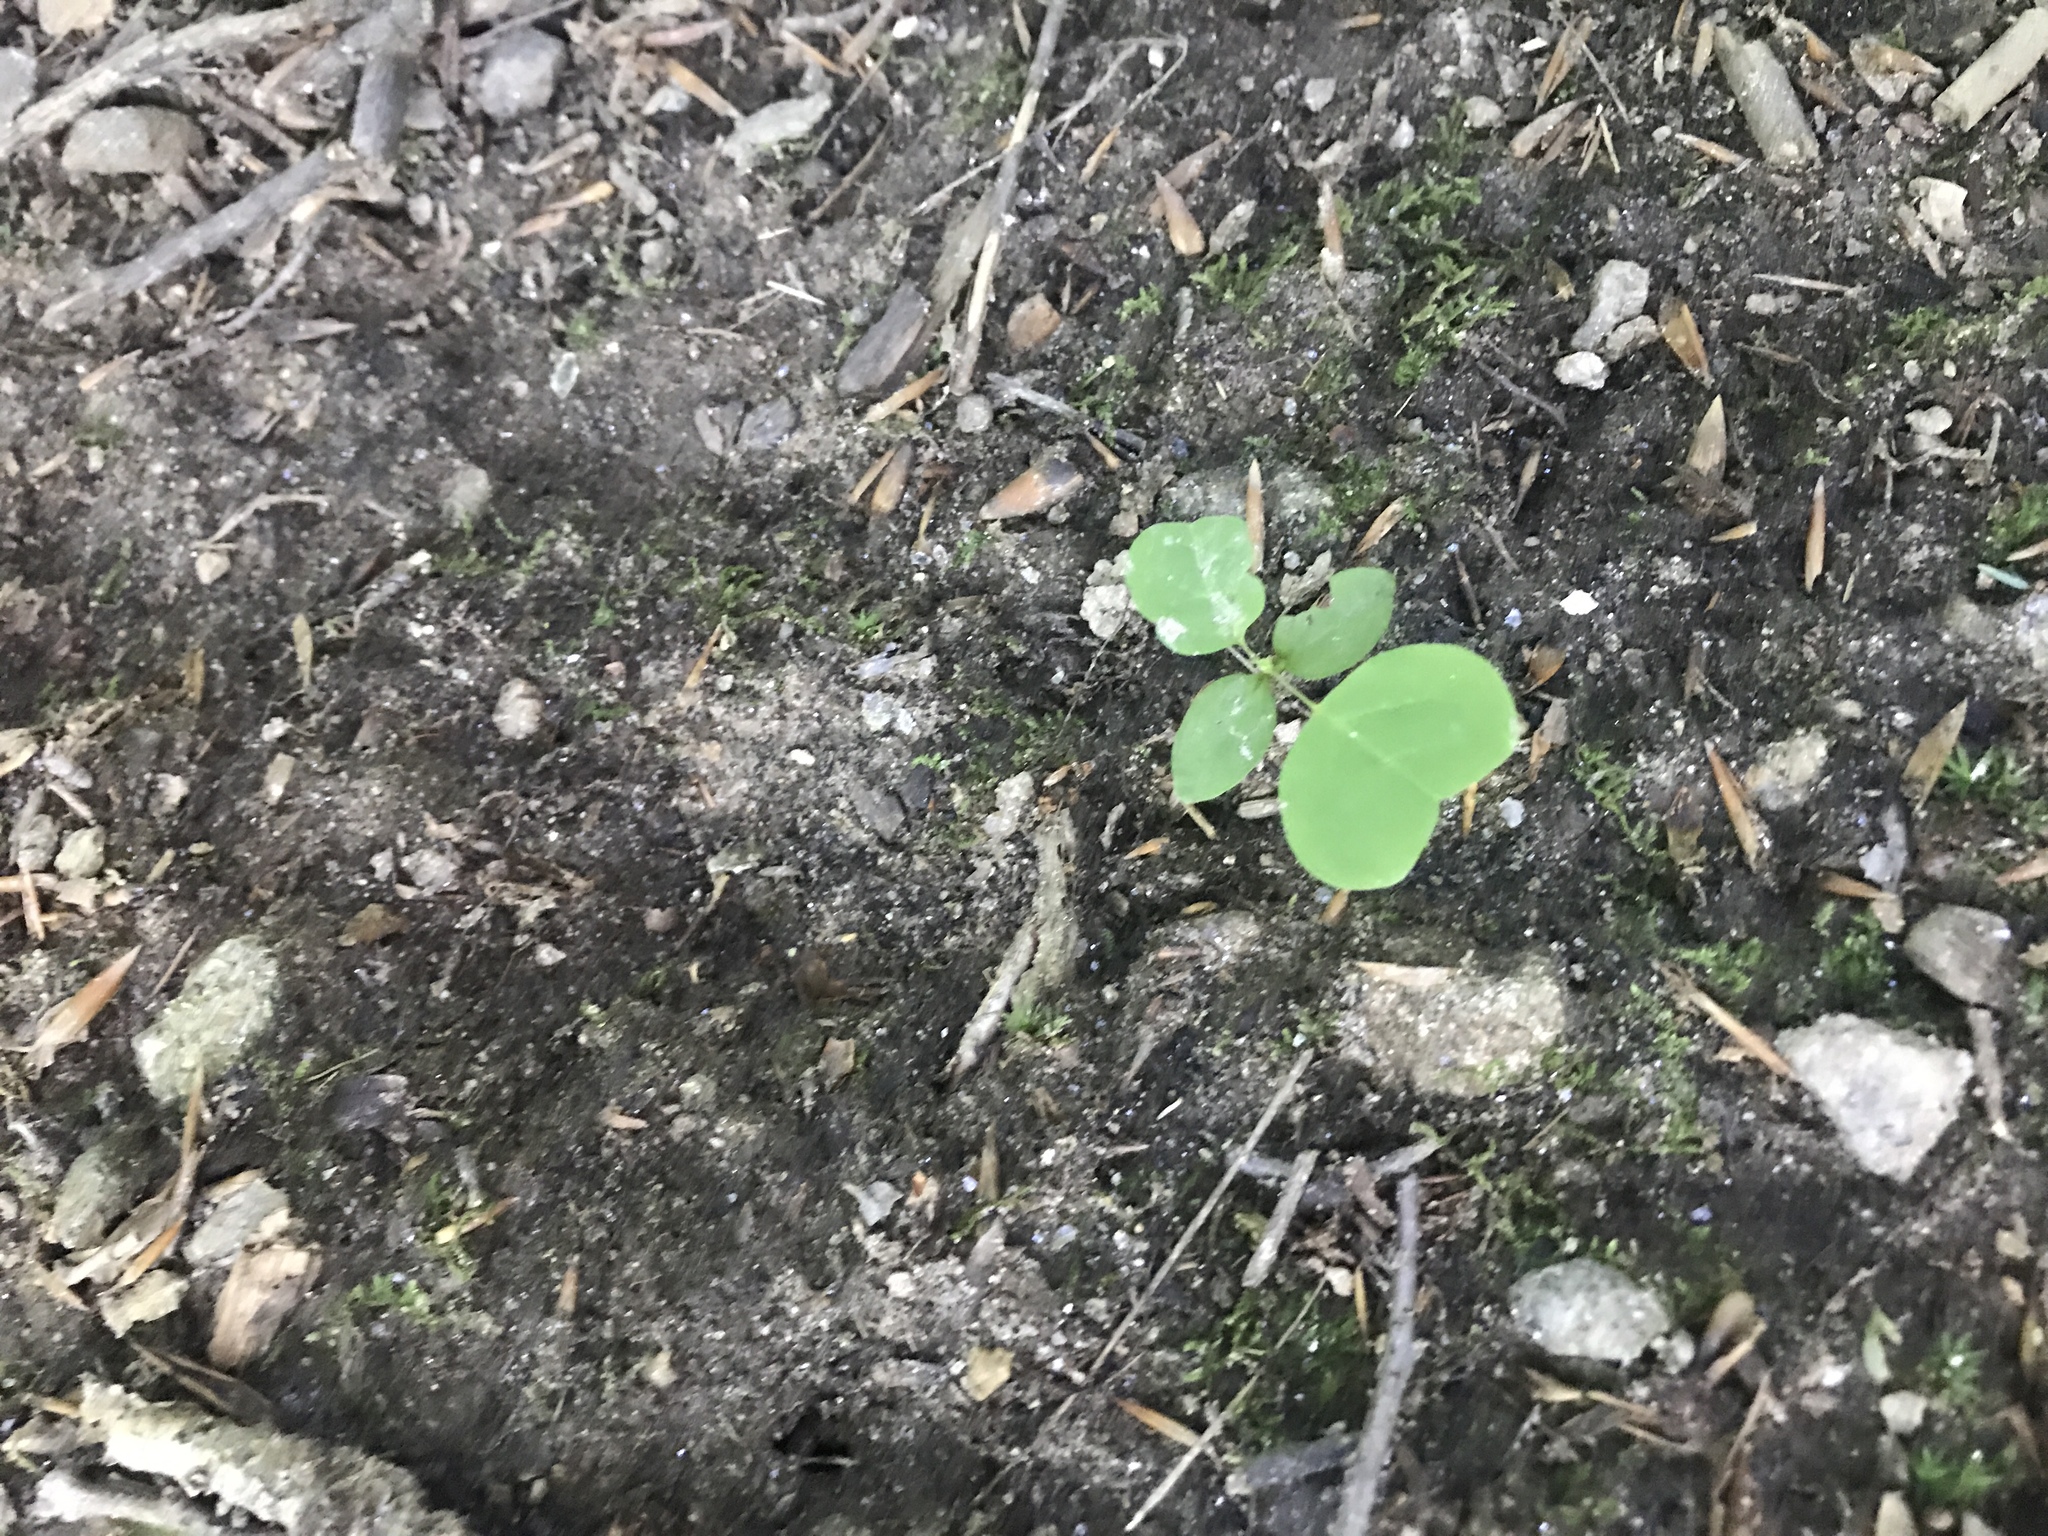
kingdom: Plantae
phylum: Tracheophyta
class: Magnoliopsida
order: Magnoliales
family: Magnoliaceae
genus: Liriodendron
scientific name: Liriodendron tulipifera
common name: Tulip tree
